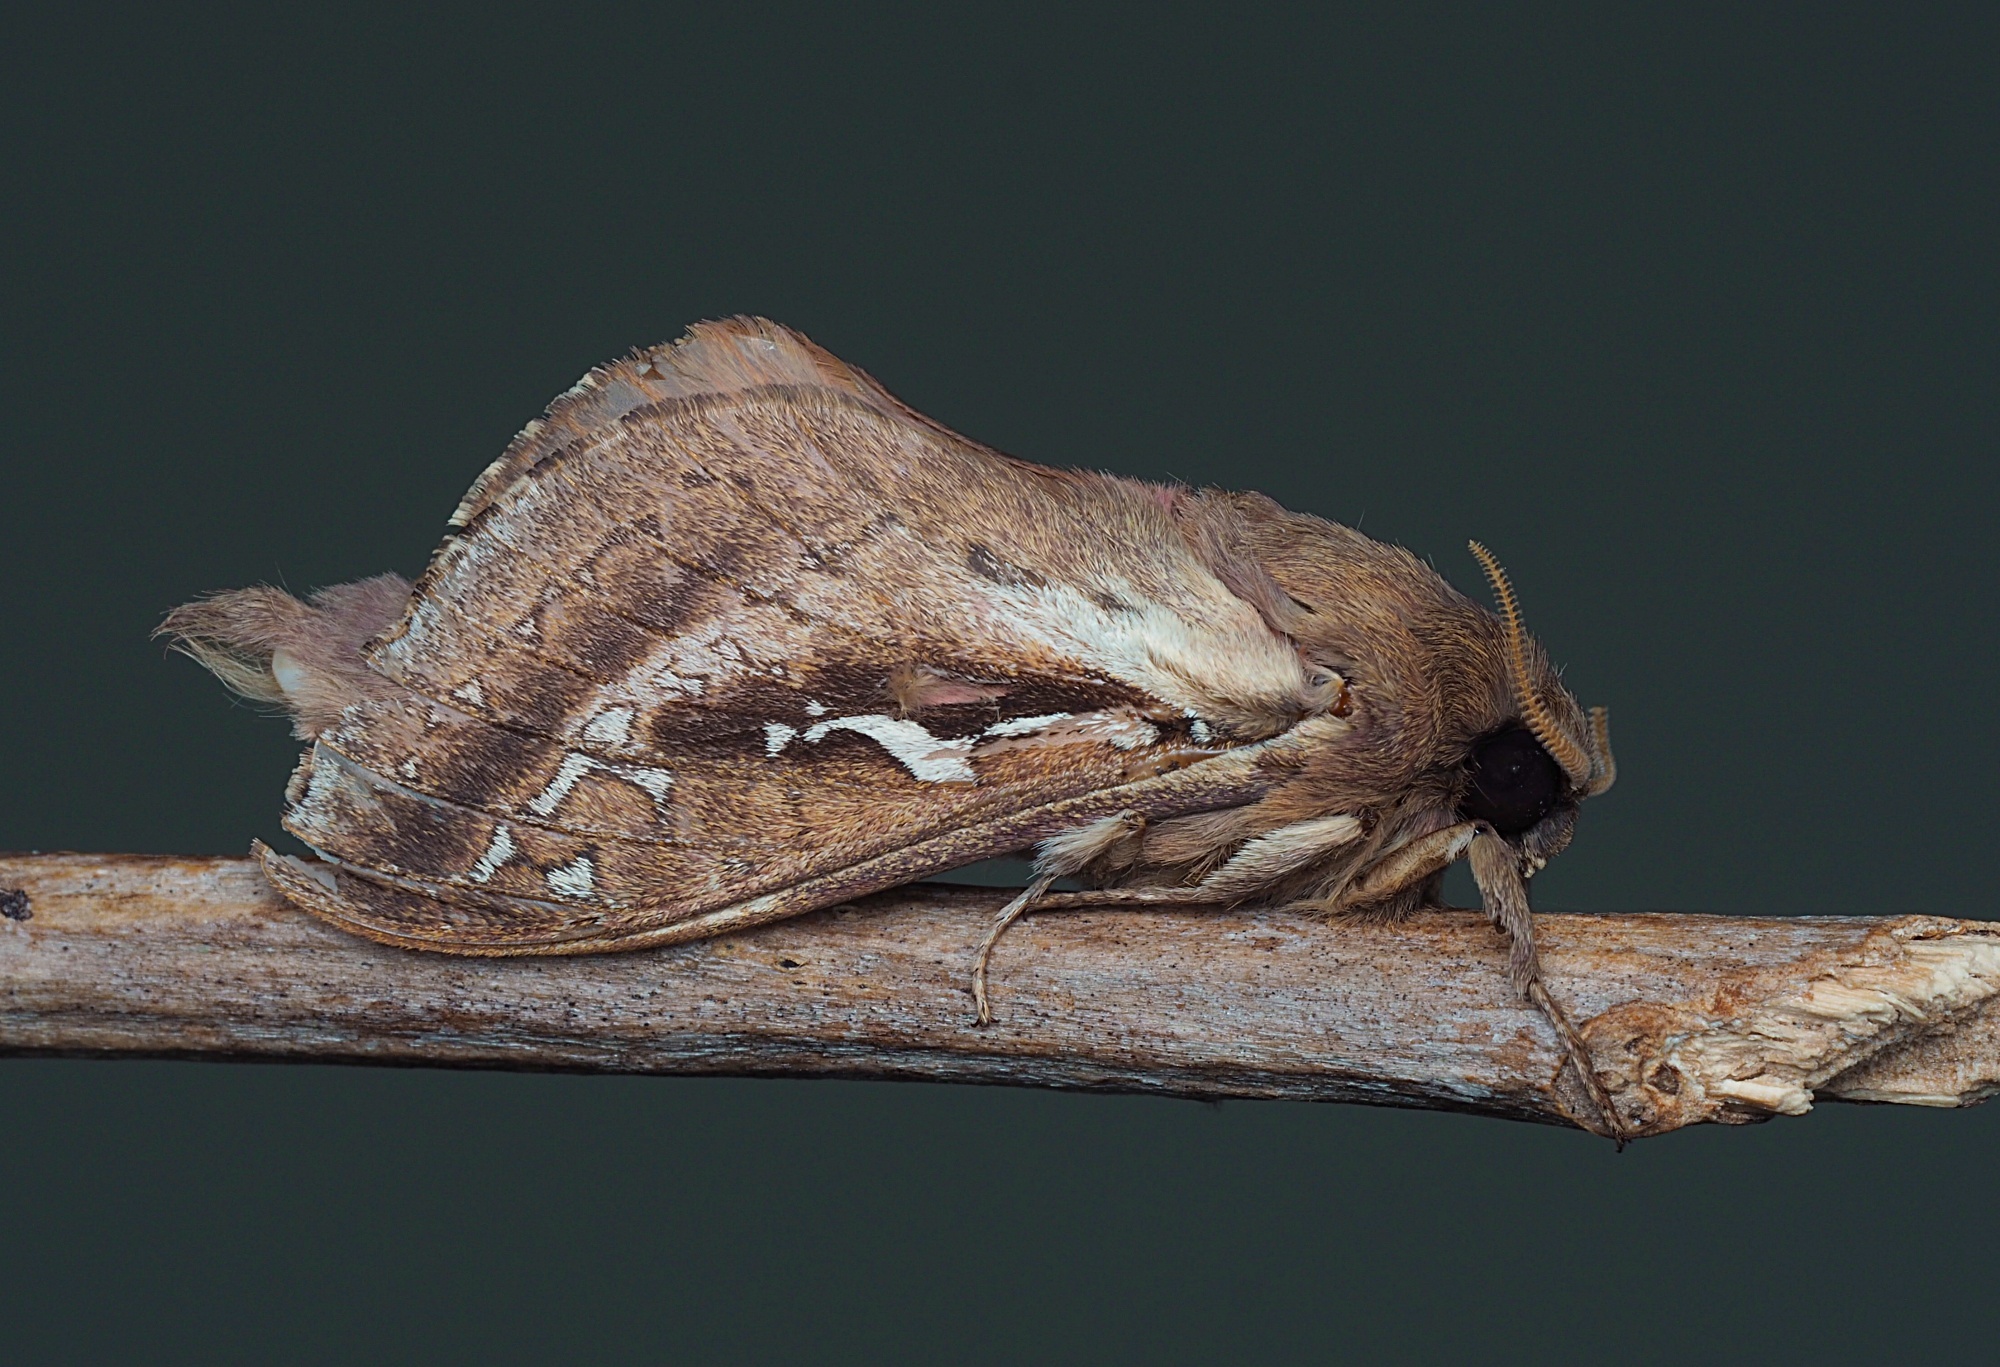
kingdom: Animalia
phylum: Arthropoda
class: Insecta
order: Lepidoptera
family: Hepialidae
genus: Wiseana
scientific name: Wiseana signata
